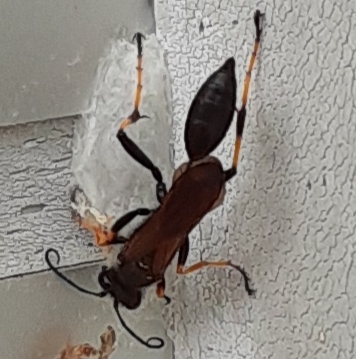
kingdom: Animalia
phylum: Arthropoda
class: Insecta
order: Hymenoptera
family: Sphecidae
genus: Sceliphron
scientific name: Sceliphron caementarium
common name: Mud dauber
